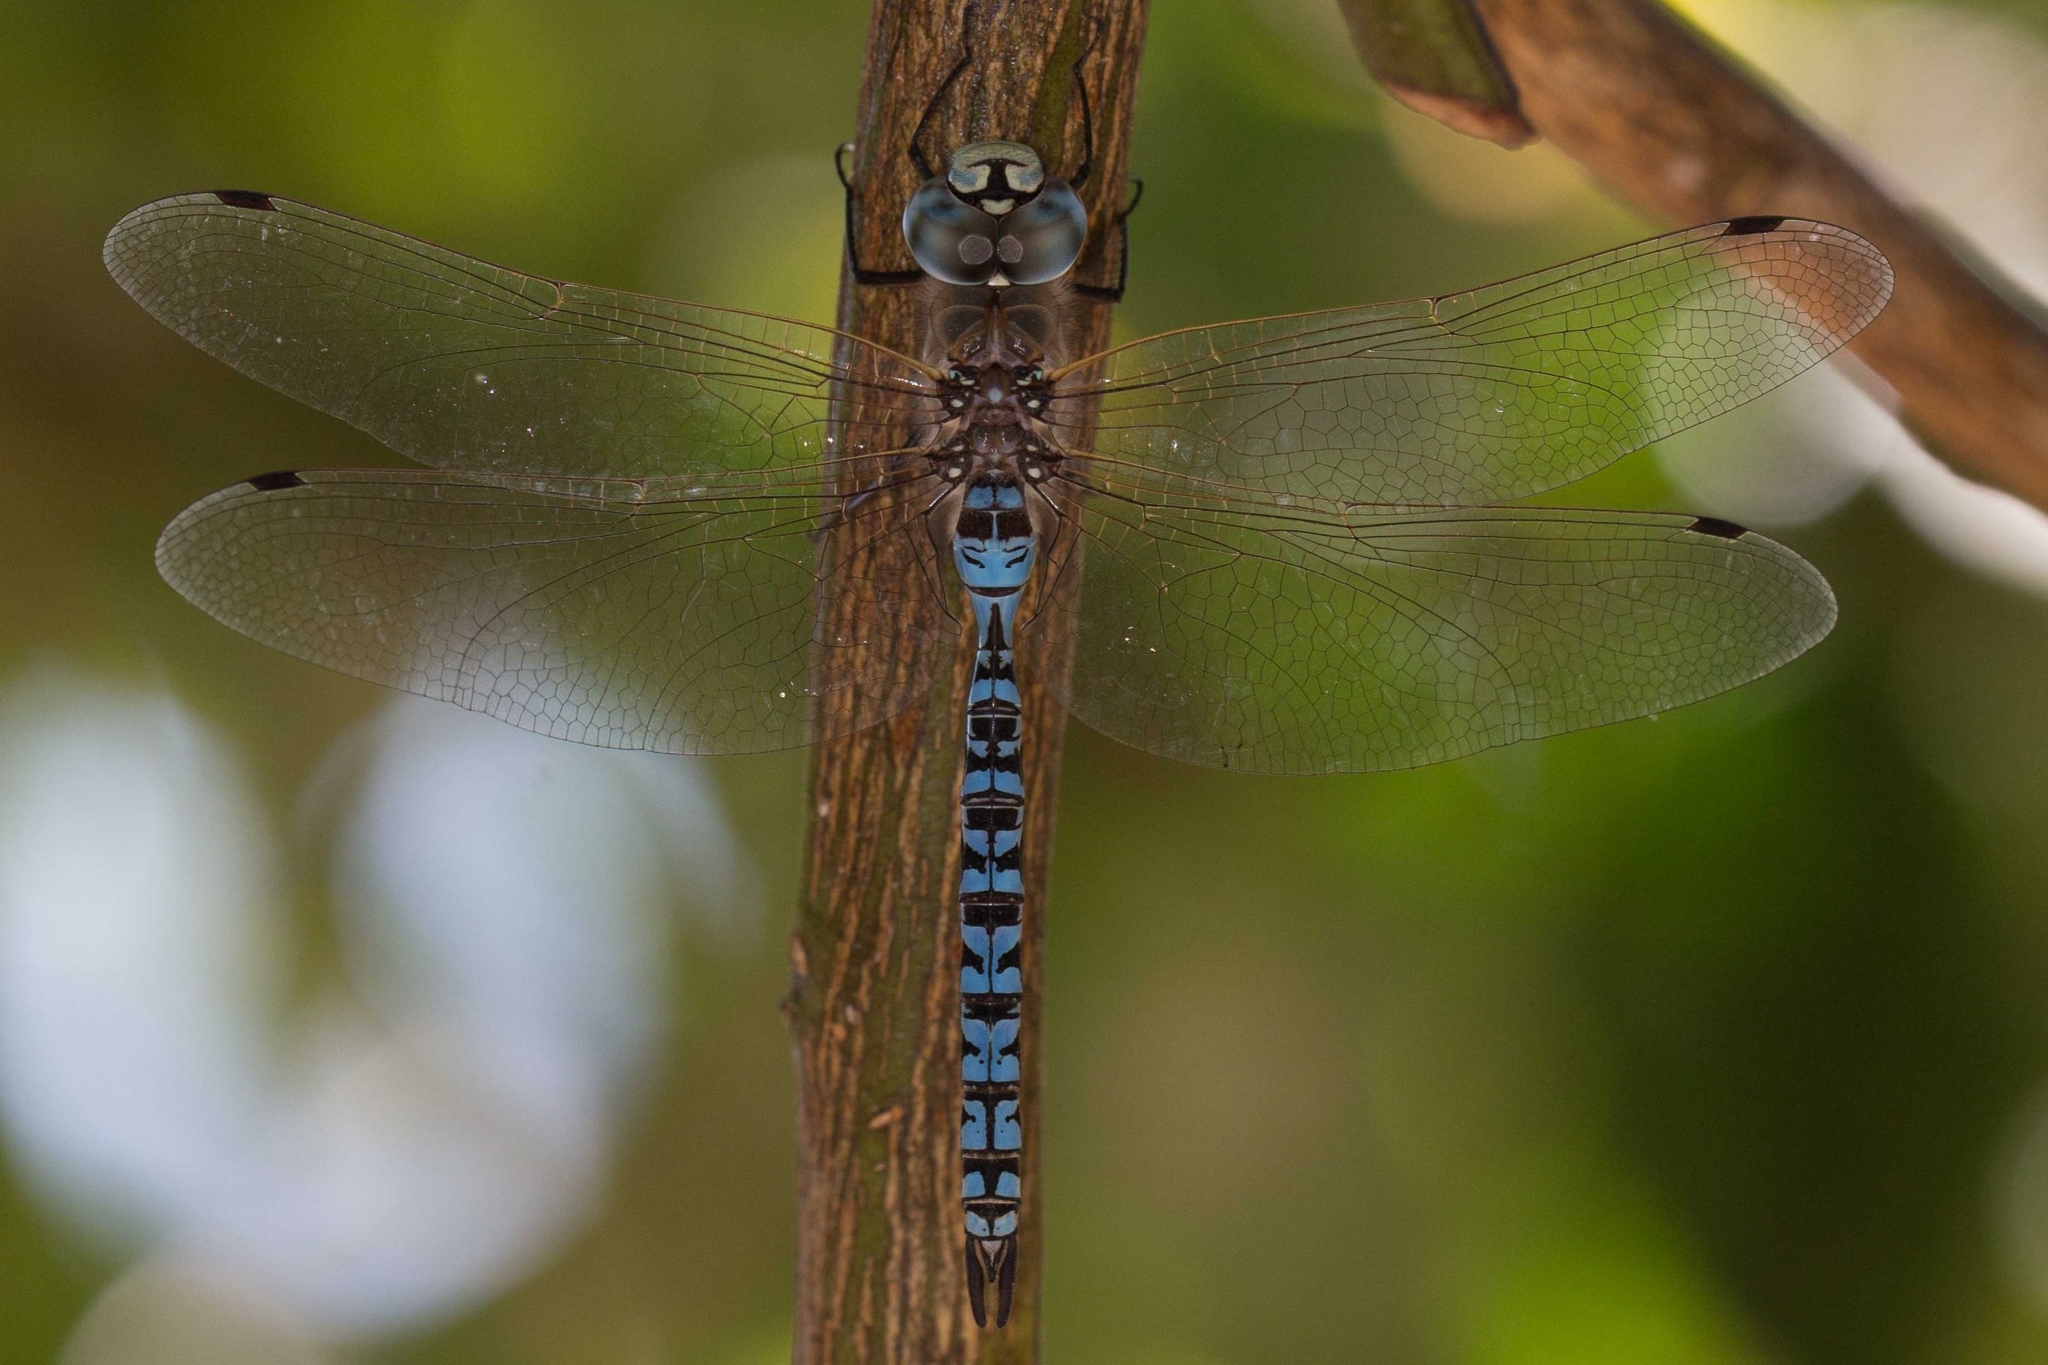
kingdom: Animalia
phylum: Arthropoda
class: Insecta
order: Odonata
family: Aeshnidae
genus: Rhionaeschna
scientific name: Rhionaeschna diffinis
